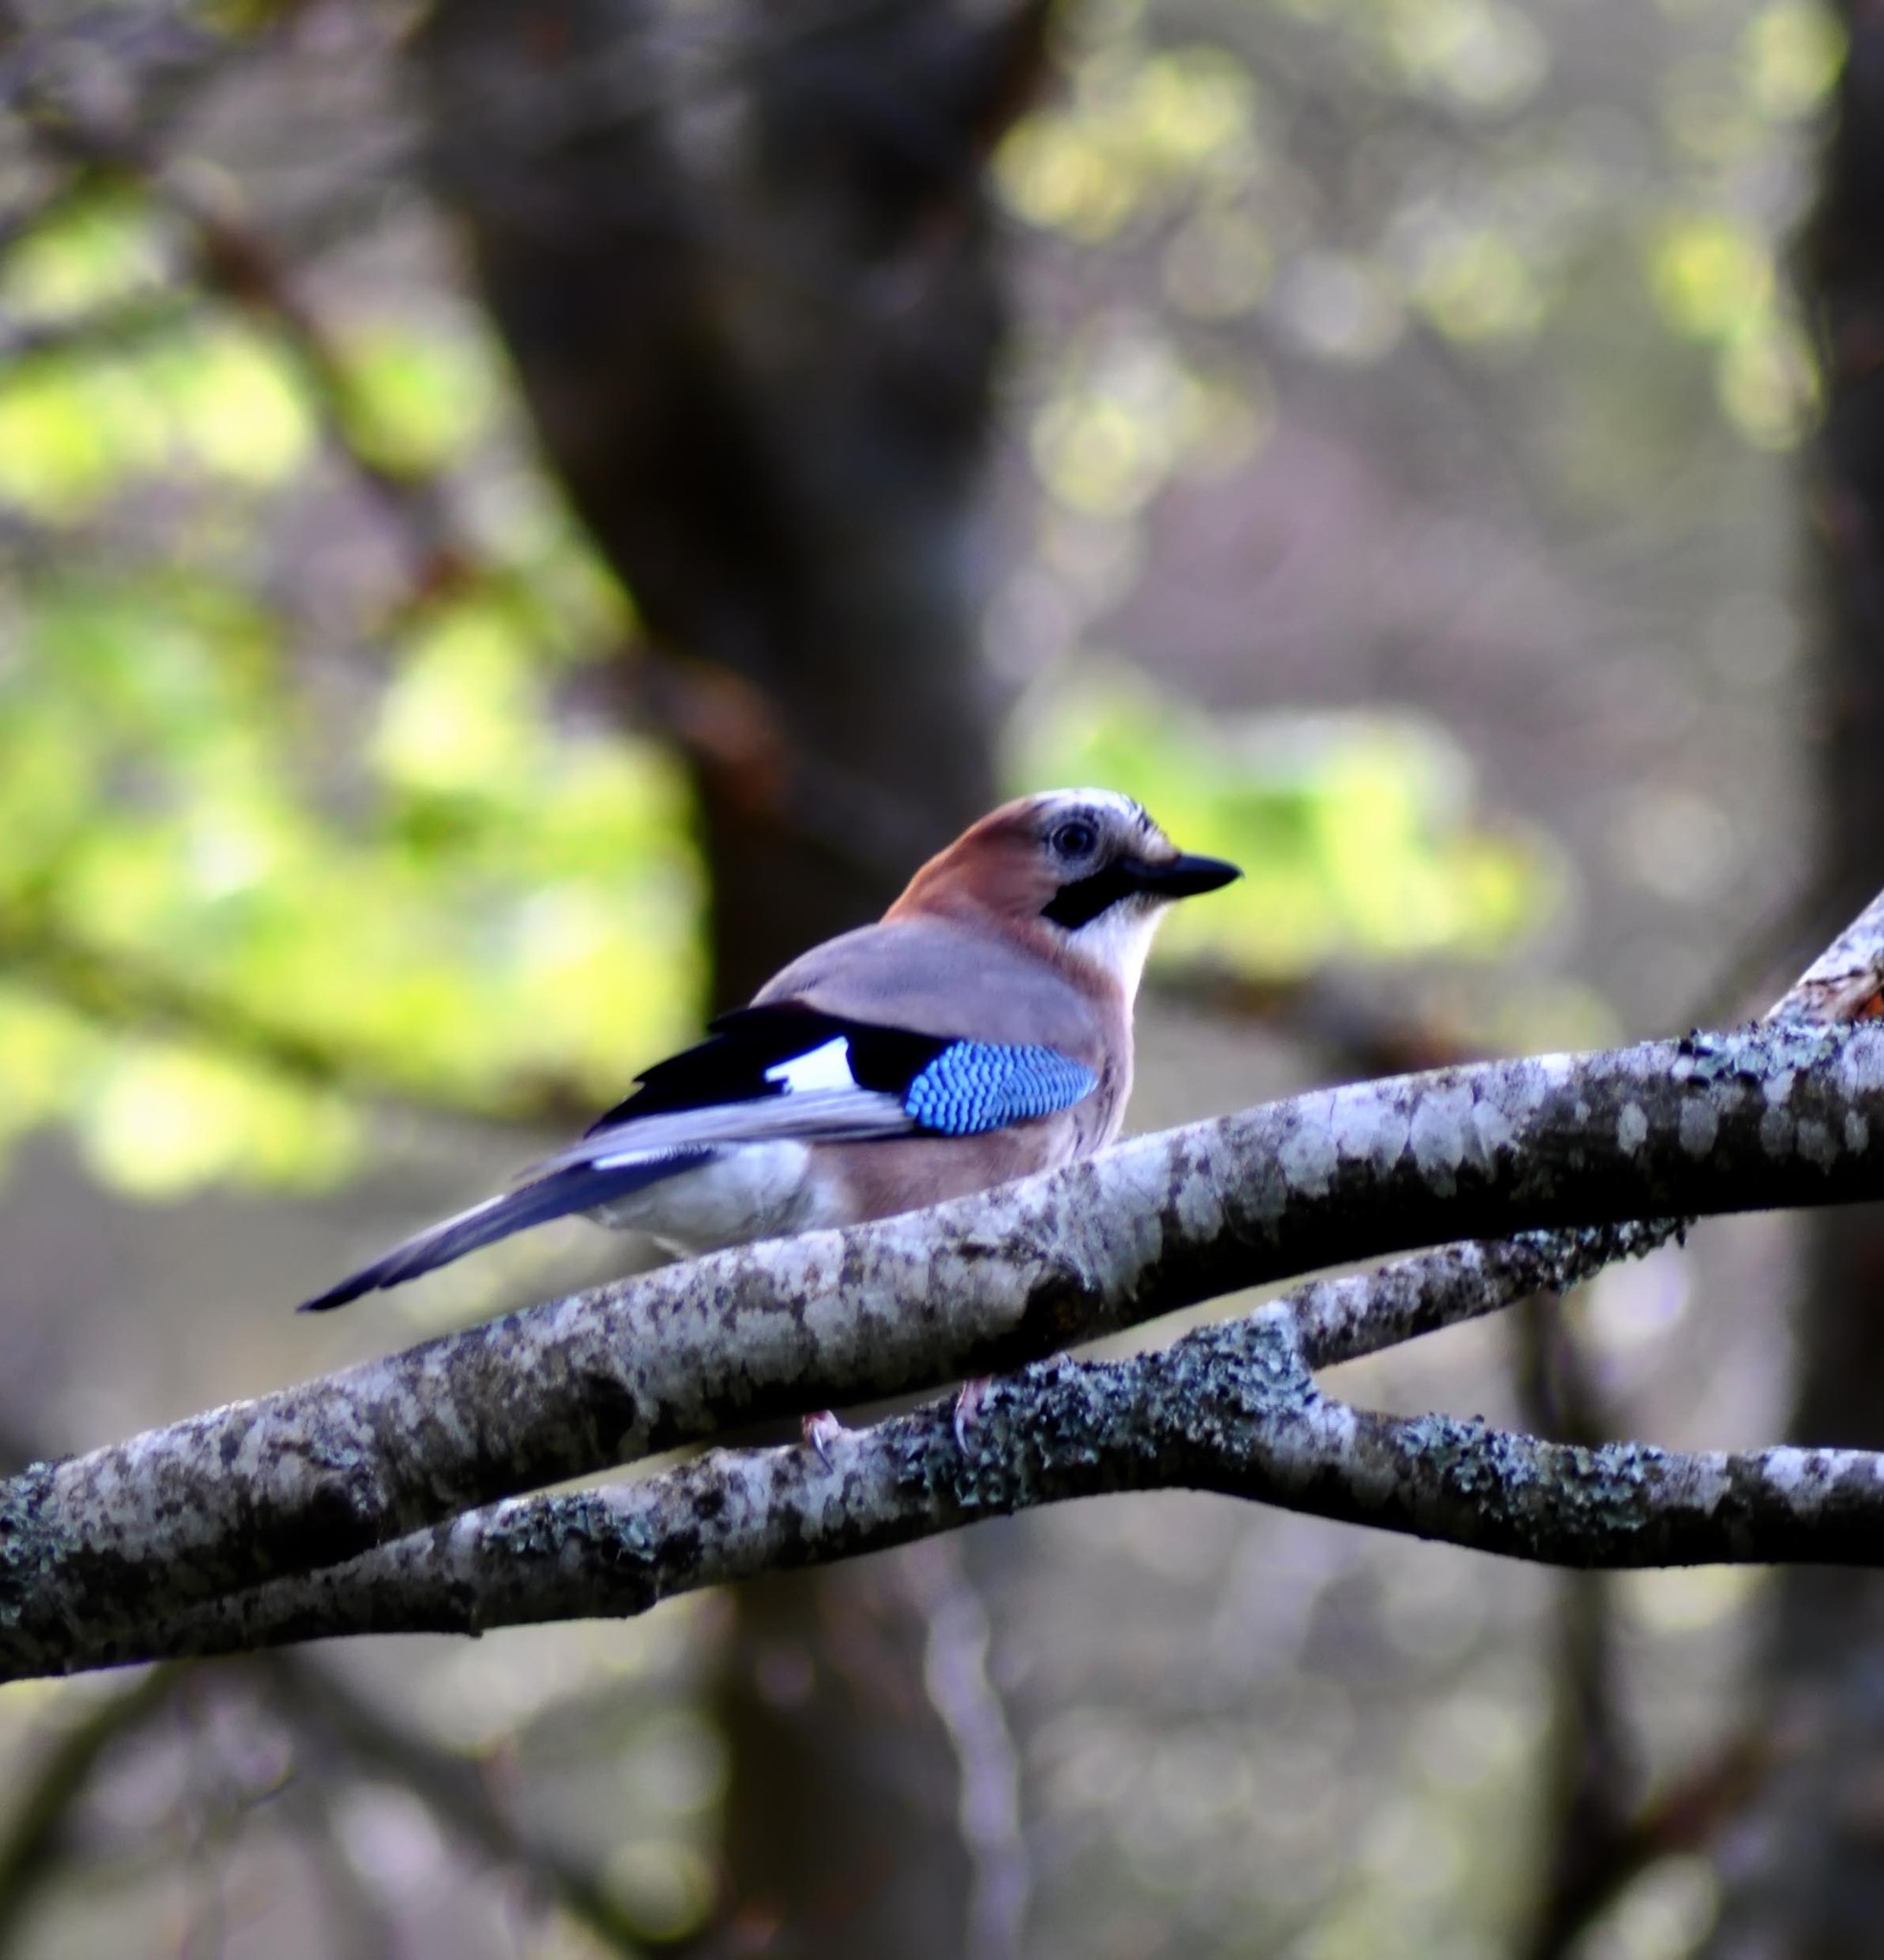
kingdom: Animalia
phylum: Chordata
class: Aves
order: Passeriformes
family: Corvidae
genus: Garrulus
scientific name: Garrulus glandarius
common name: Eurasian jay
